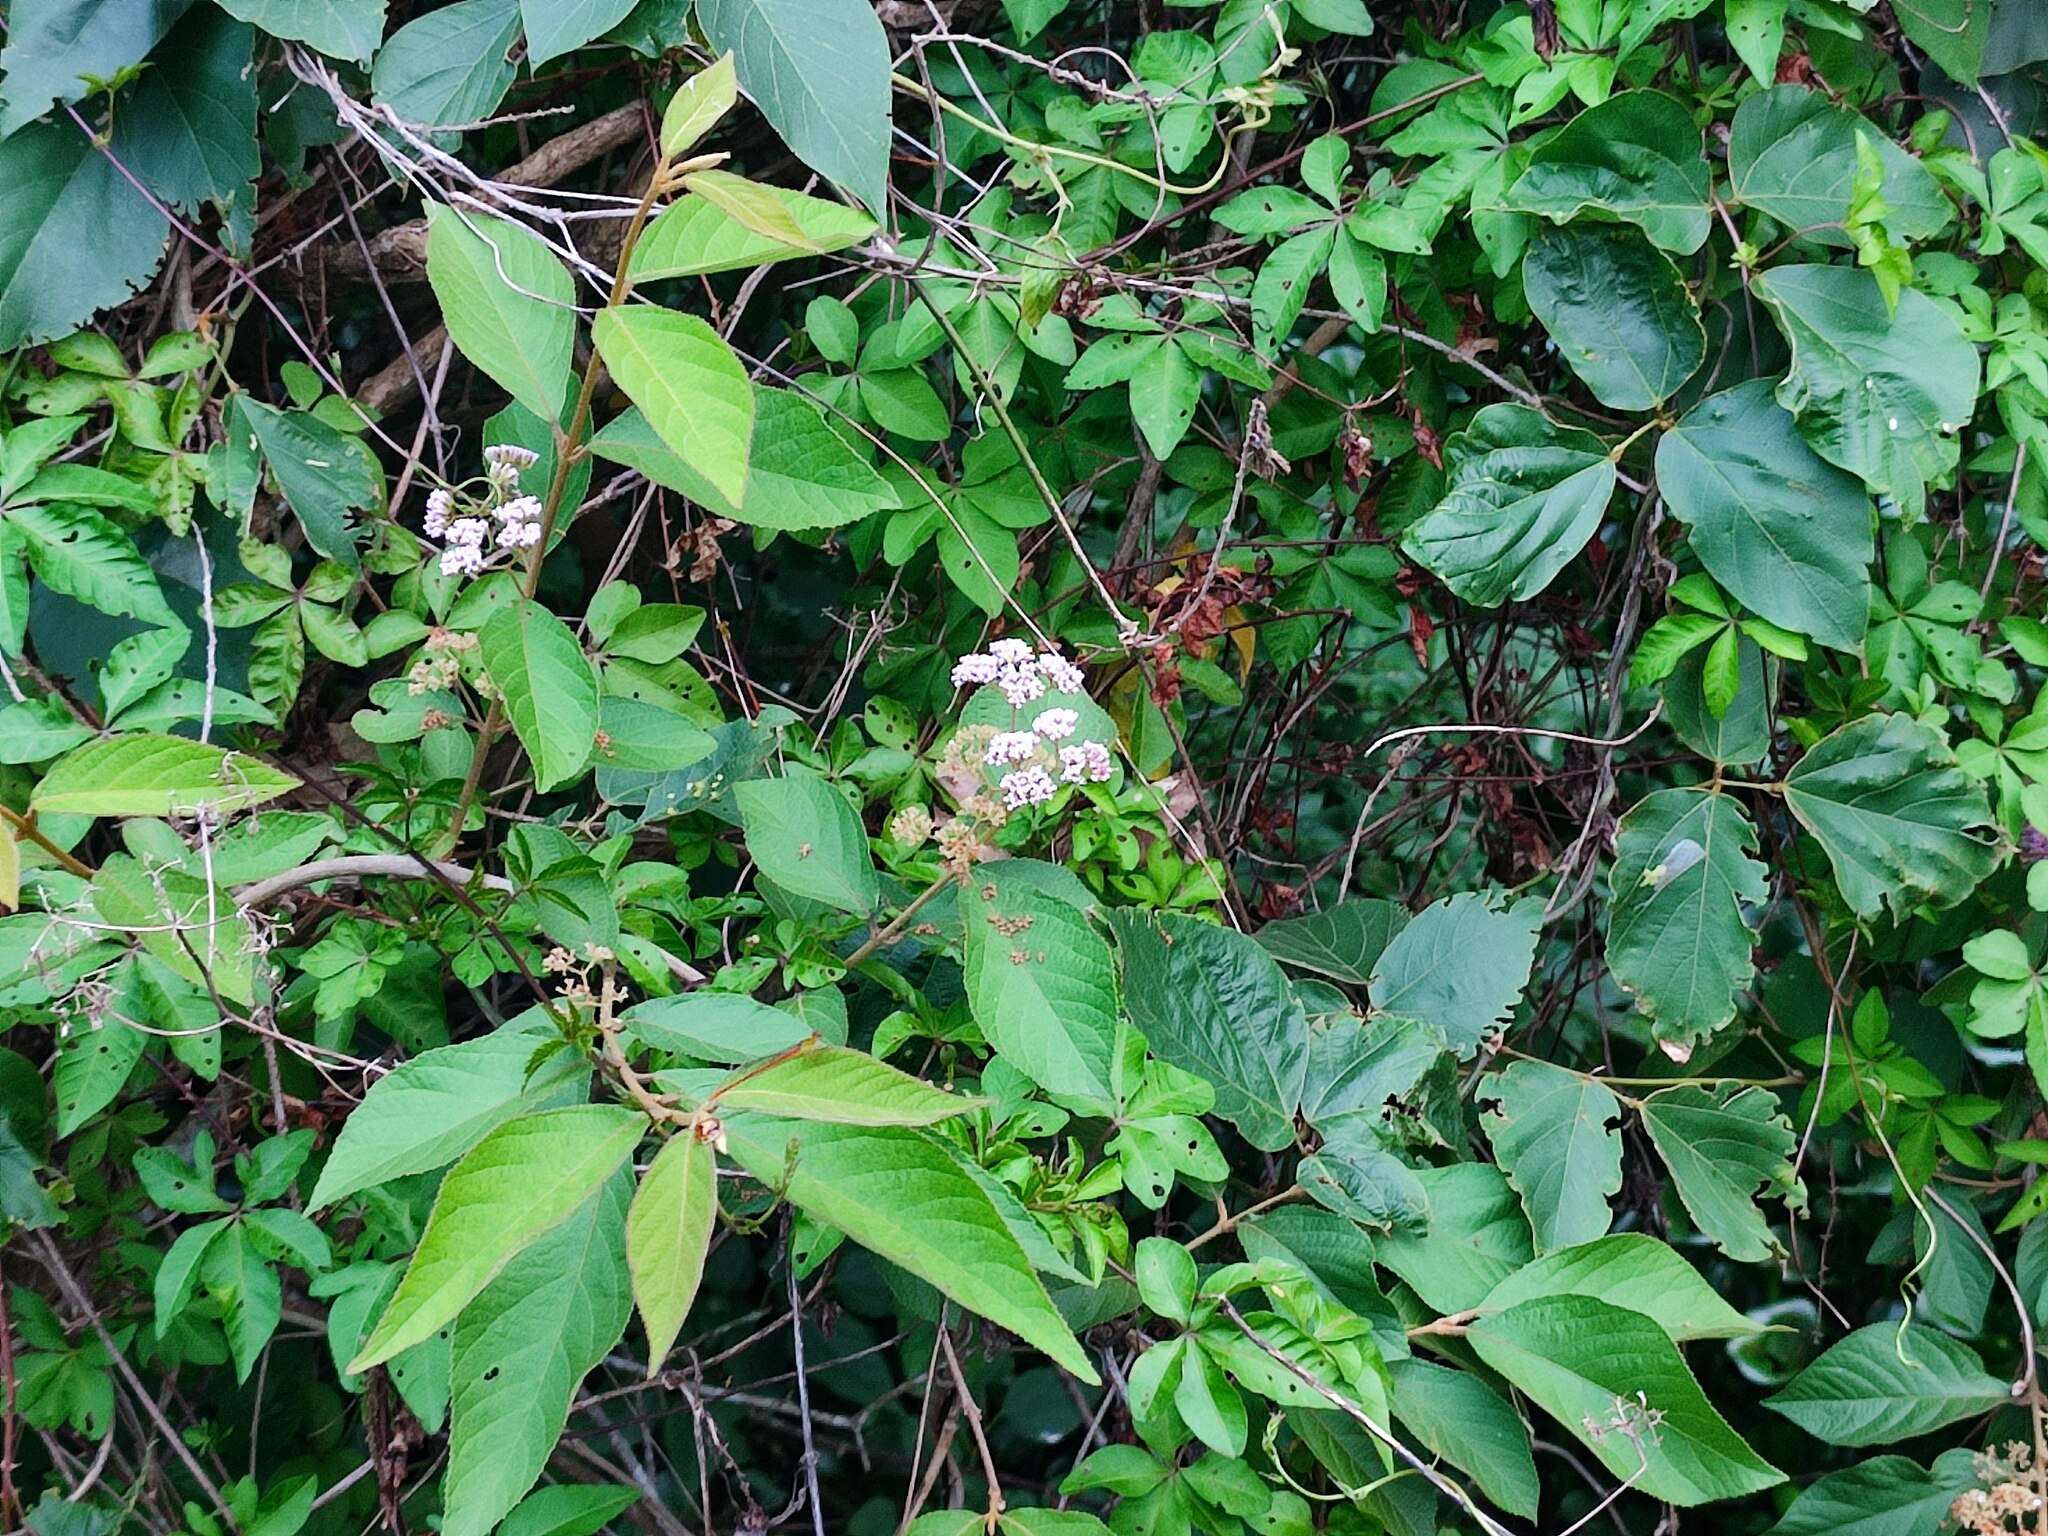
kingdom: Plantae
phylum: Tracheophyta
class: Magnoliopsida
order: Lamiales
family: Lamiaceae
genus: Callicarpa
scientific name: Callicarpa pedunculata
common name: Velvetleaf
